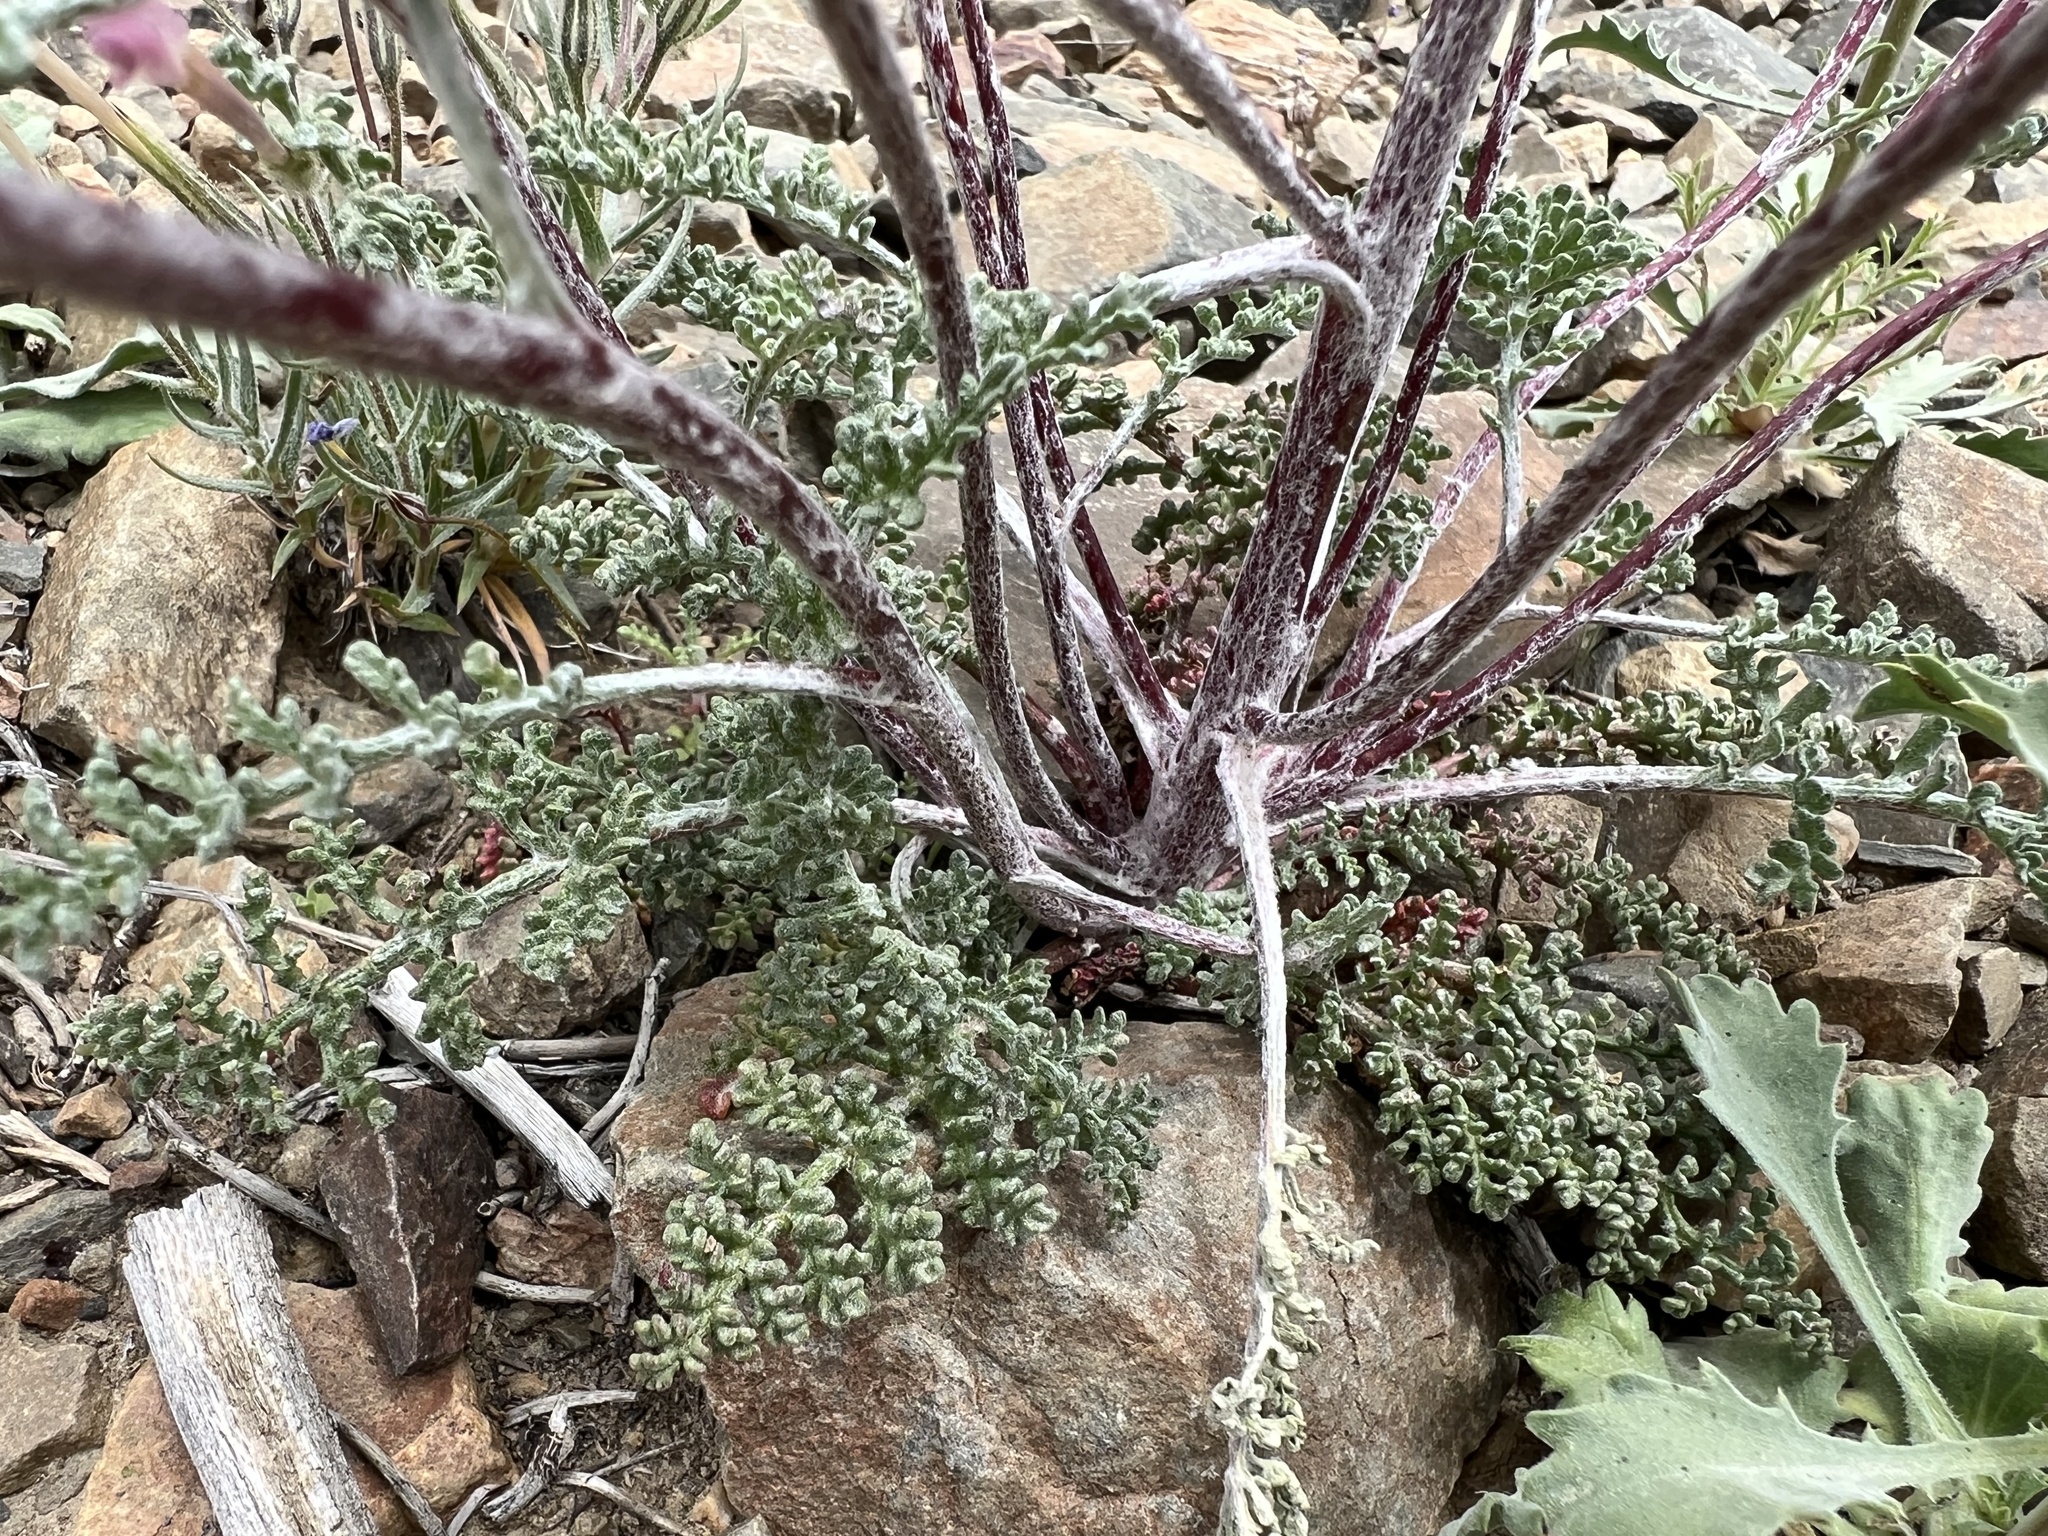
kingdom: Plantae
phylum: Tracheophyta
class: Magnoliopsida
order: Asterales
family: Asteraceae
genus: Chaenactis
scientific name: Chaenactis douglasii
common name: Hoary pincushion
